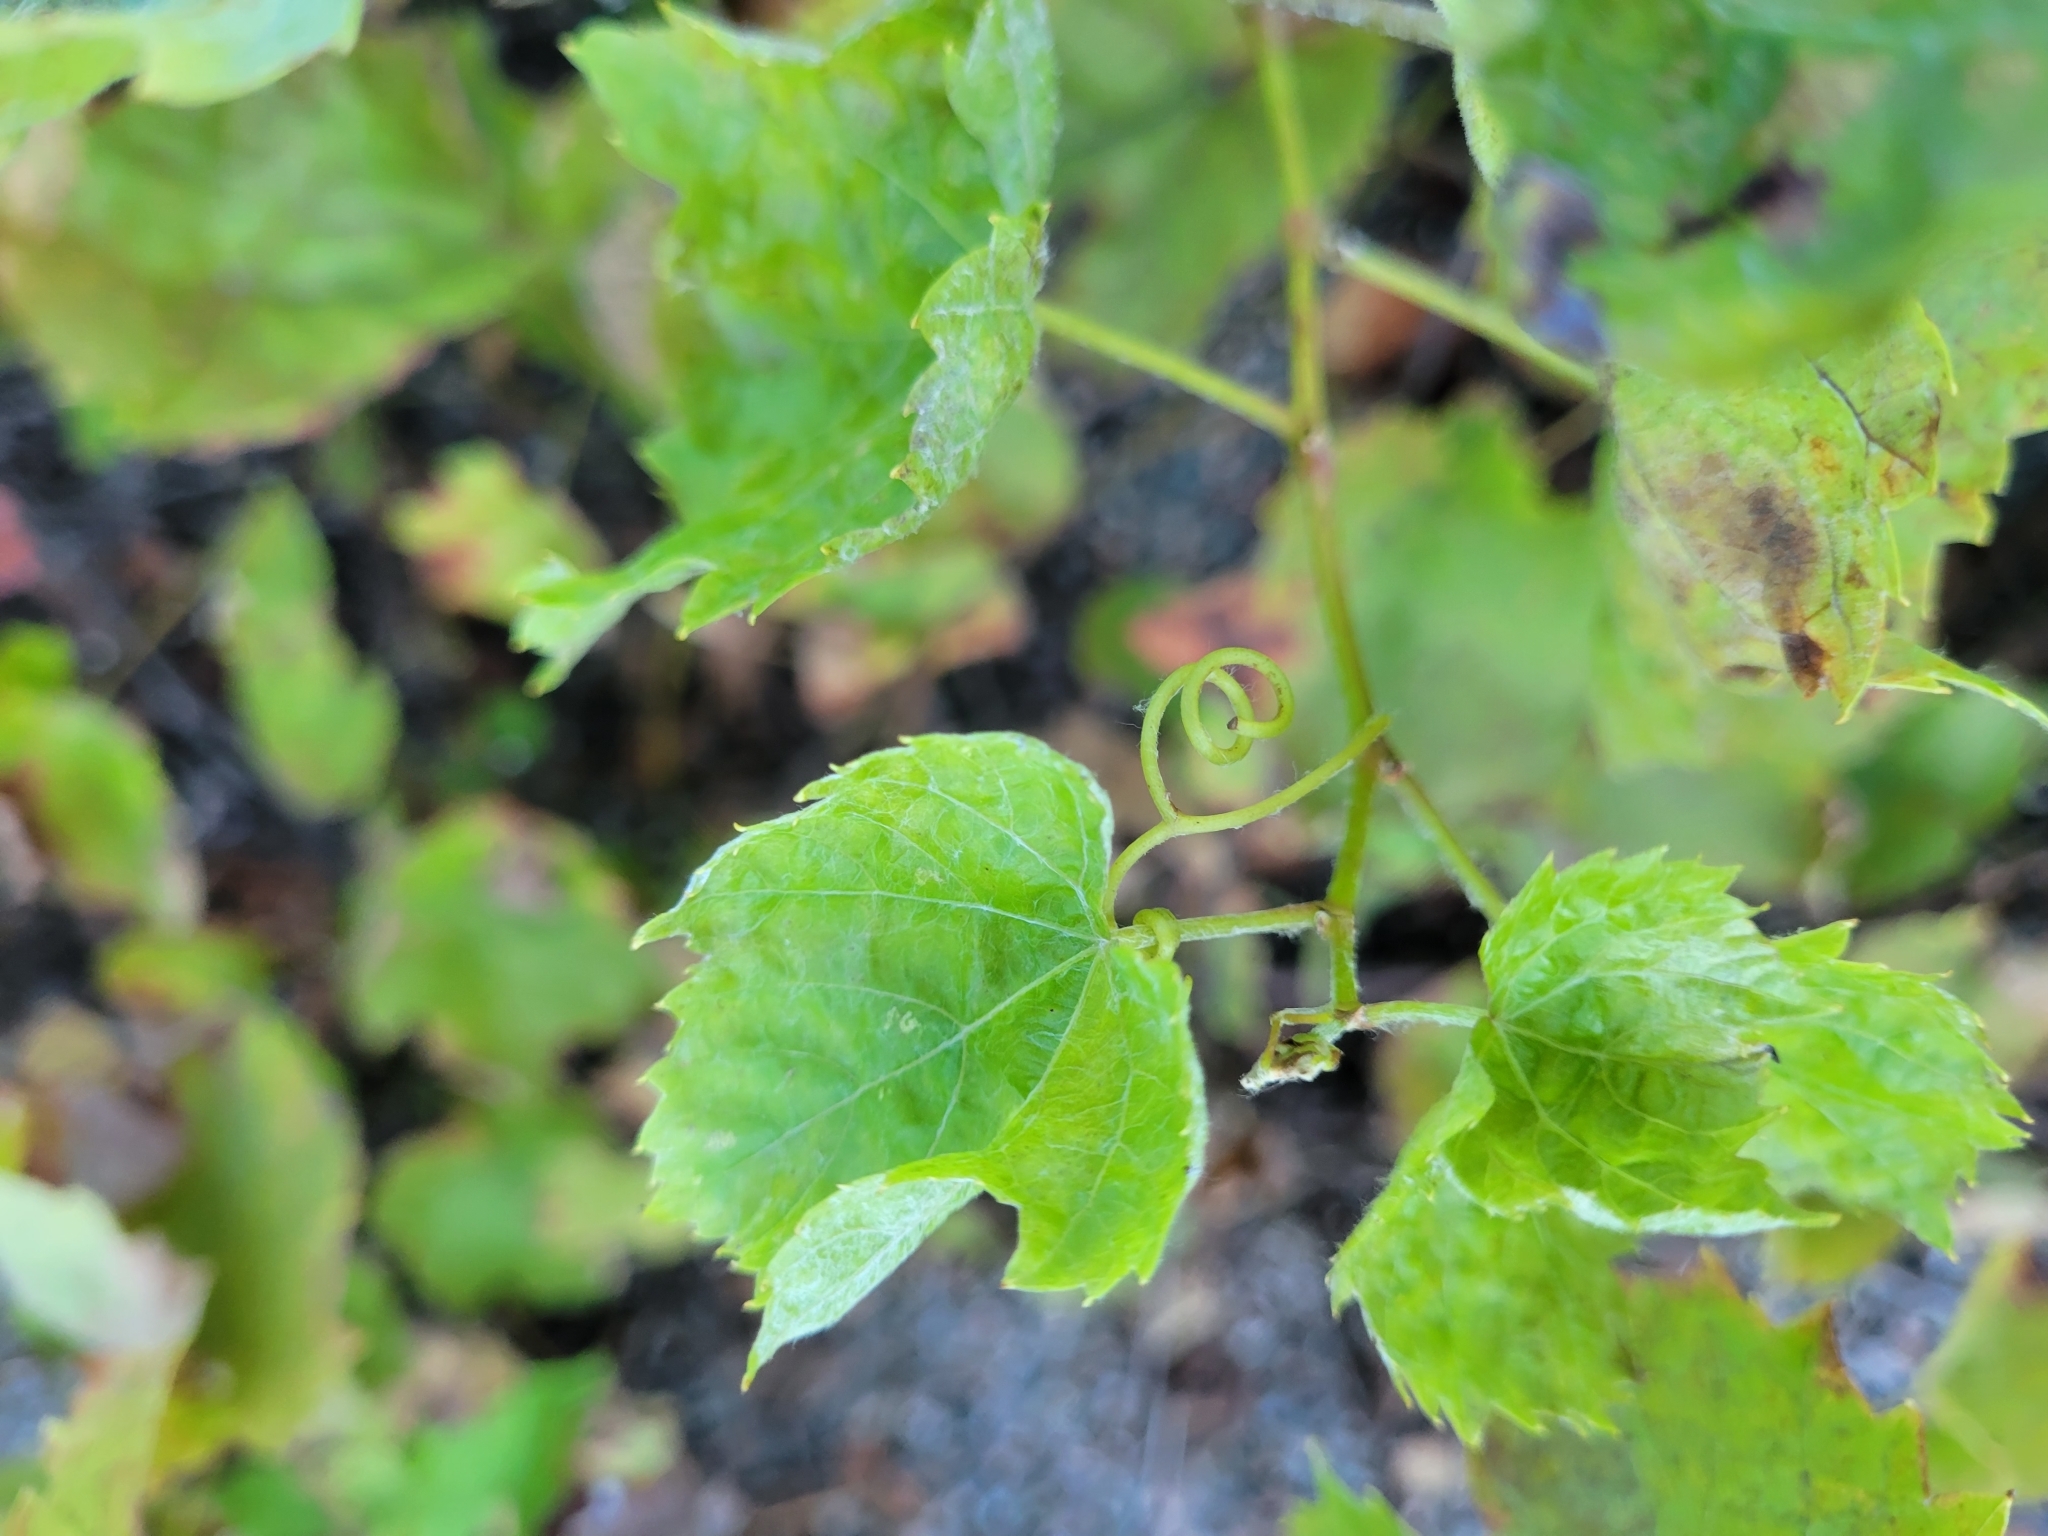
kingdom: Plantae
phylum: Tracheophyta
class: Magnoliopsida
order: Vitales
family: Vitaceae
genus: Vitis
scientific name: Vitis riparia
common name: Frost grape
